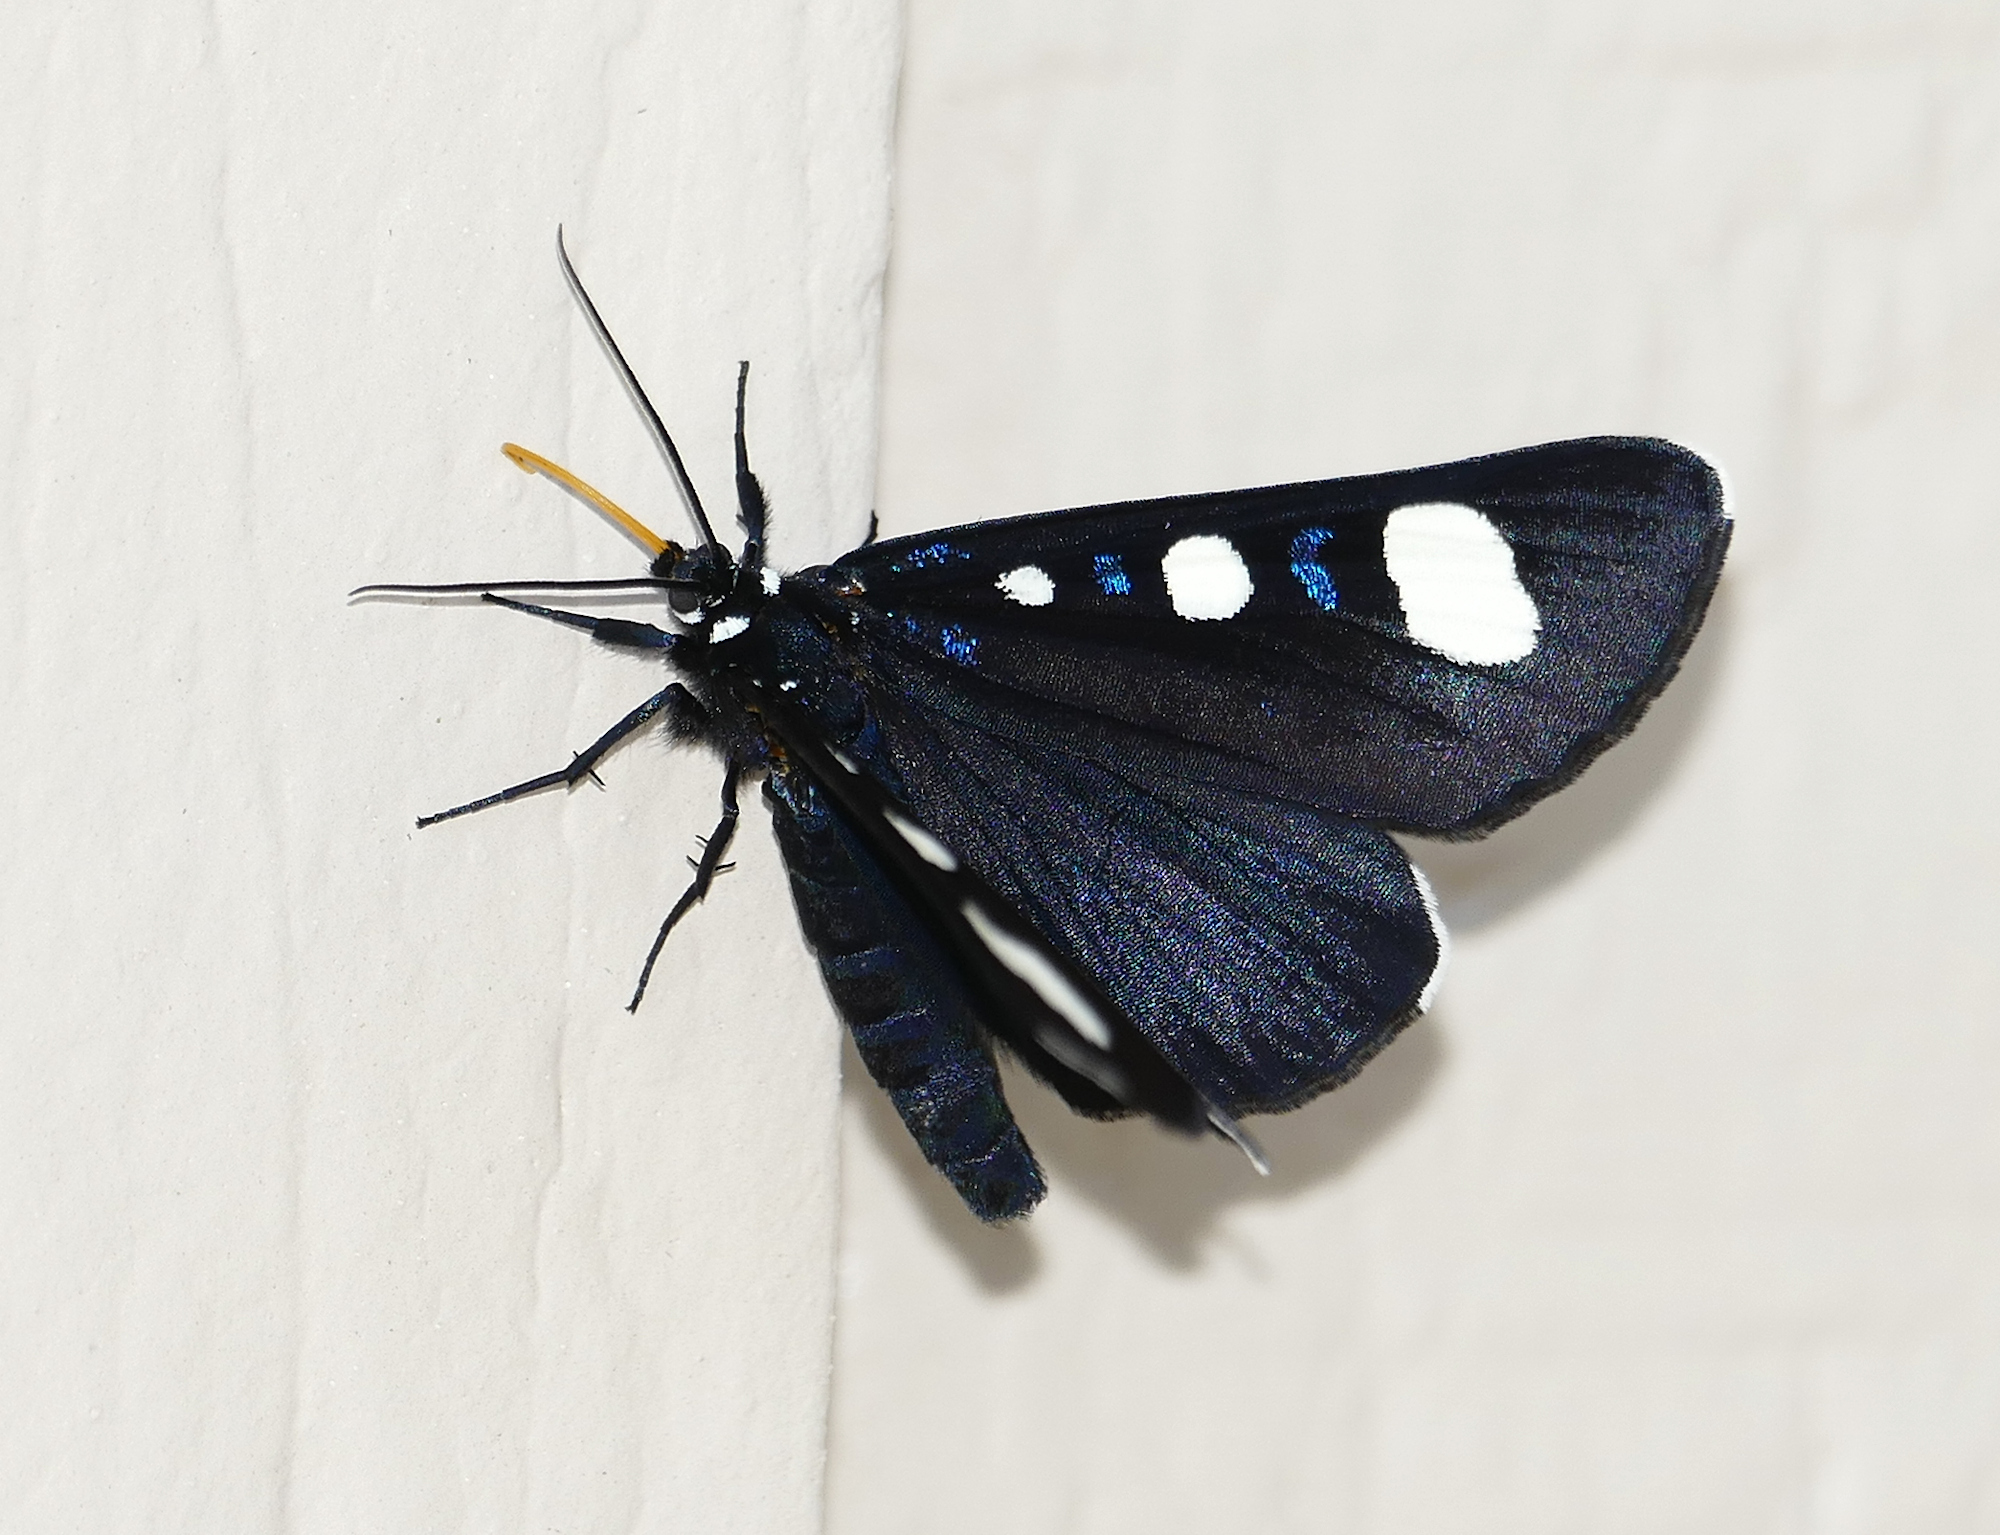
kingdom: Animalia
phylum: Arthropoda
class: Insecta
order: Lepidoptera
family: Noctuidae
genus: Alypiodes
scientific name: Alypiodes bimaculata
